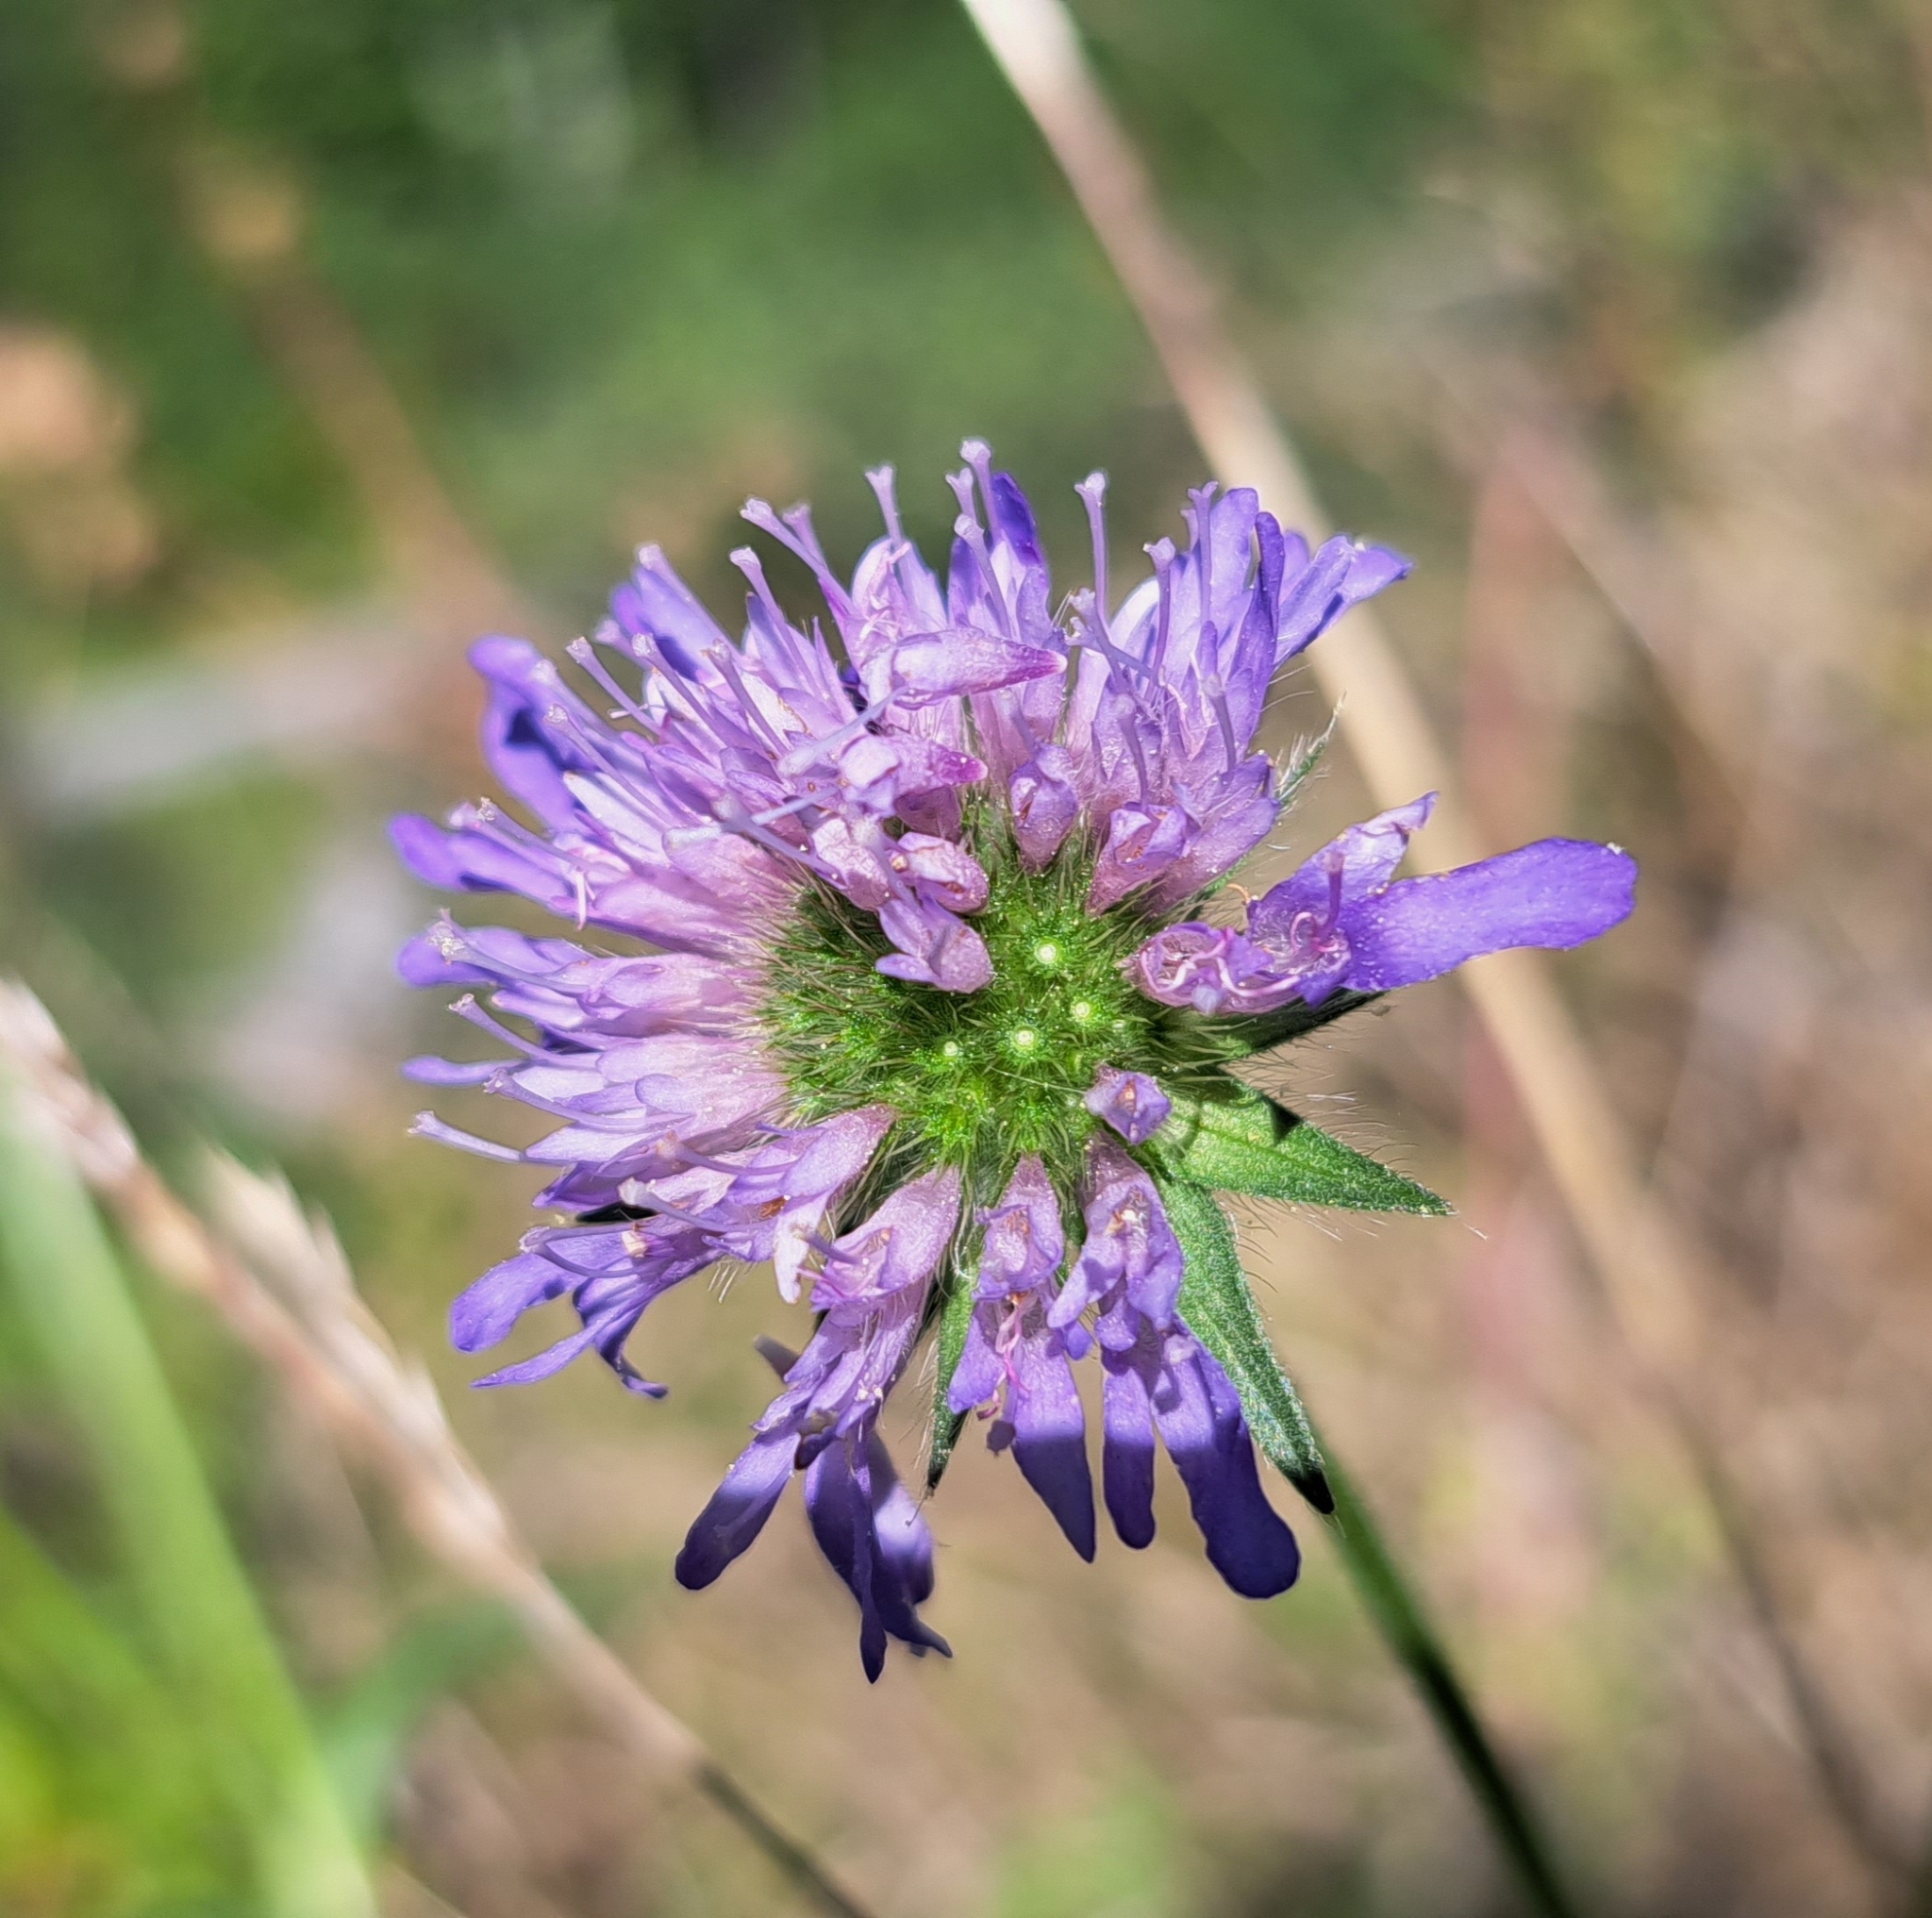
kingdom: Plantae
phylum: Tracheophyta
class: Magnoliopsida
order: Dipsacales
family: Caprifoliaceae
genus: Knautia
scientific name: Knautia arvensis
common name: Field scabiosa
